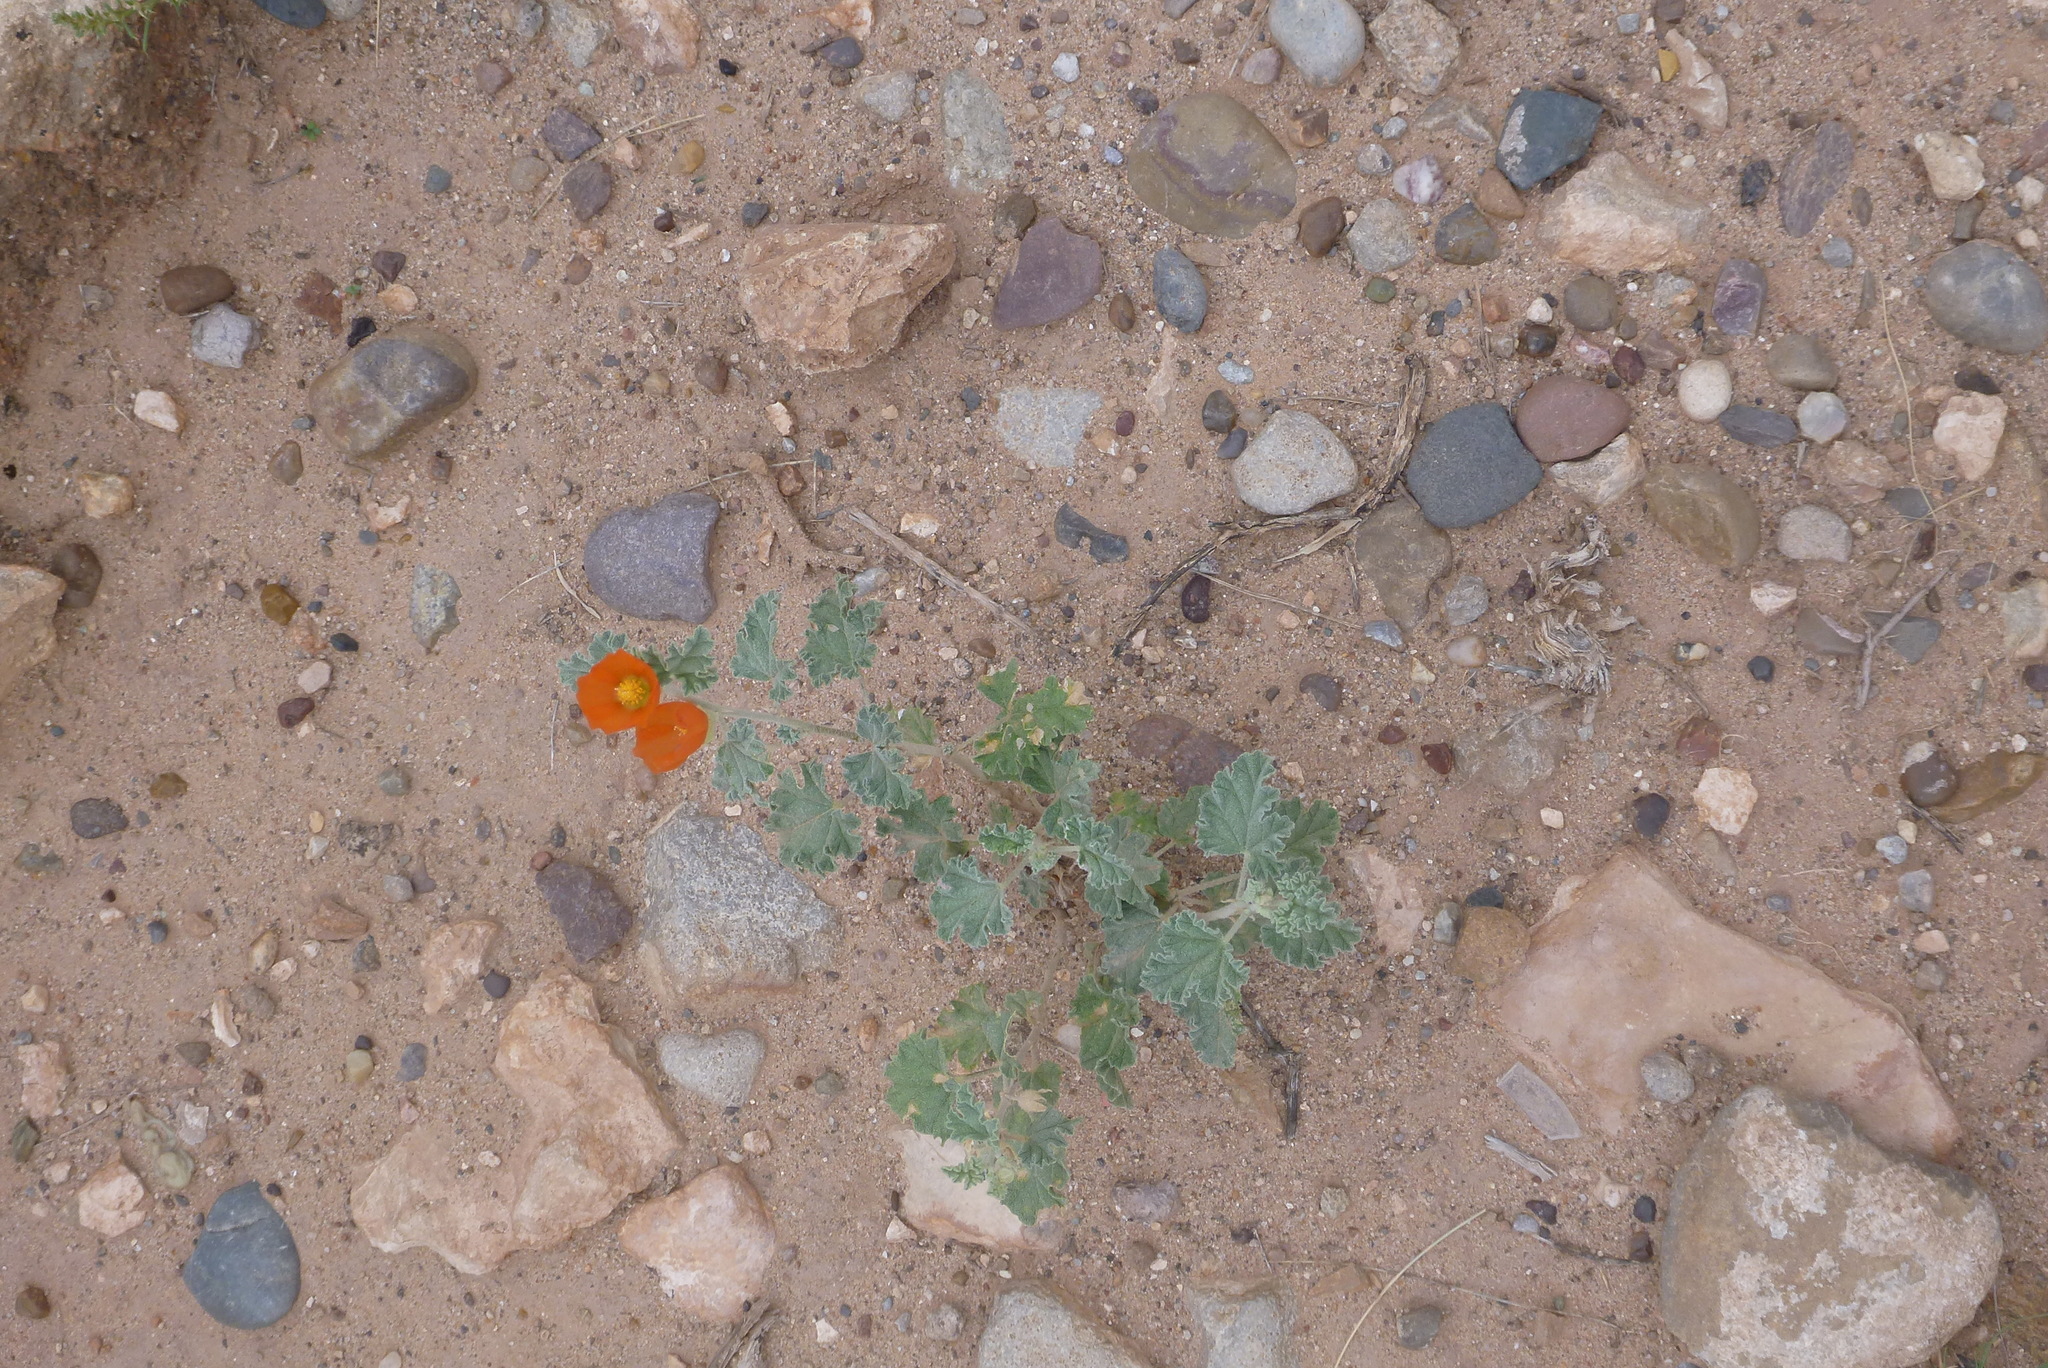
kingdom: Plantae
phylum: Tracheophyta
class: Magnoliopsida
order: Malvales
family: Malvaceae
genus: Sphaeralcea
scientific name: Sphaeralcea ambigua
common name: Apricot globe-mallow
